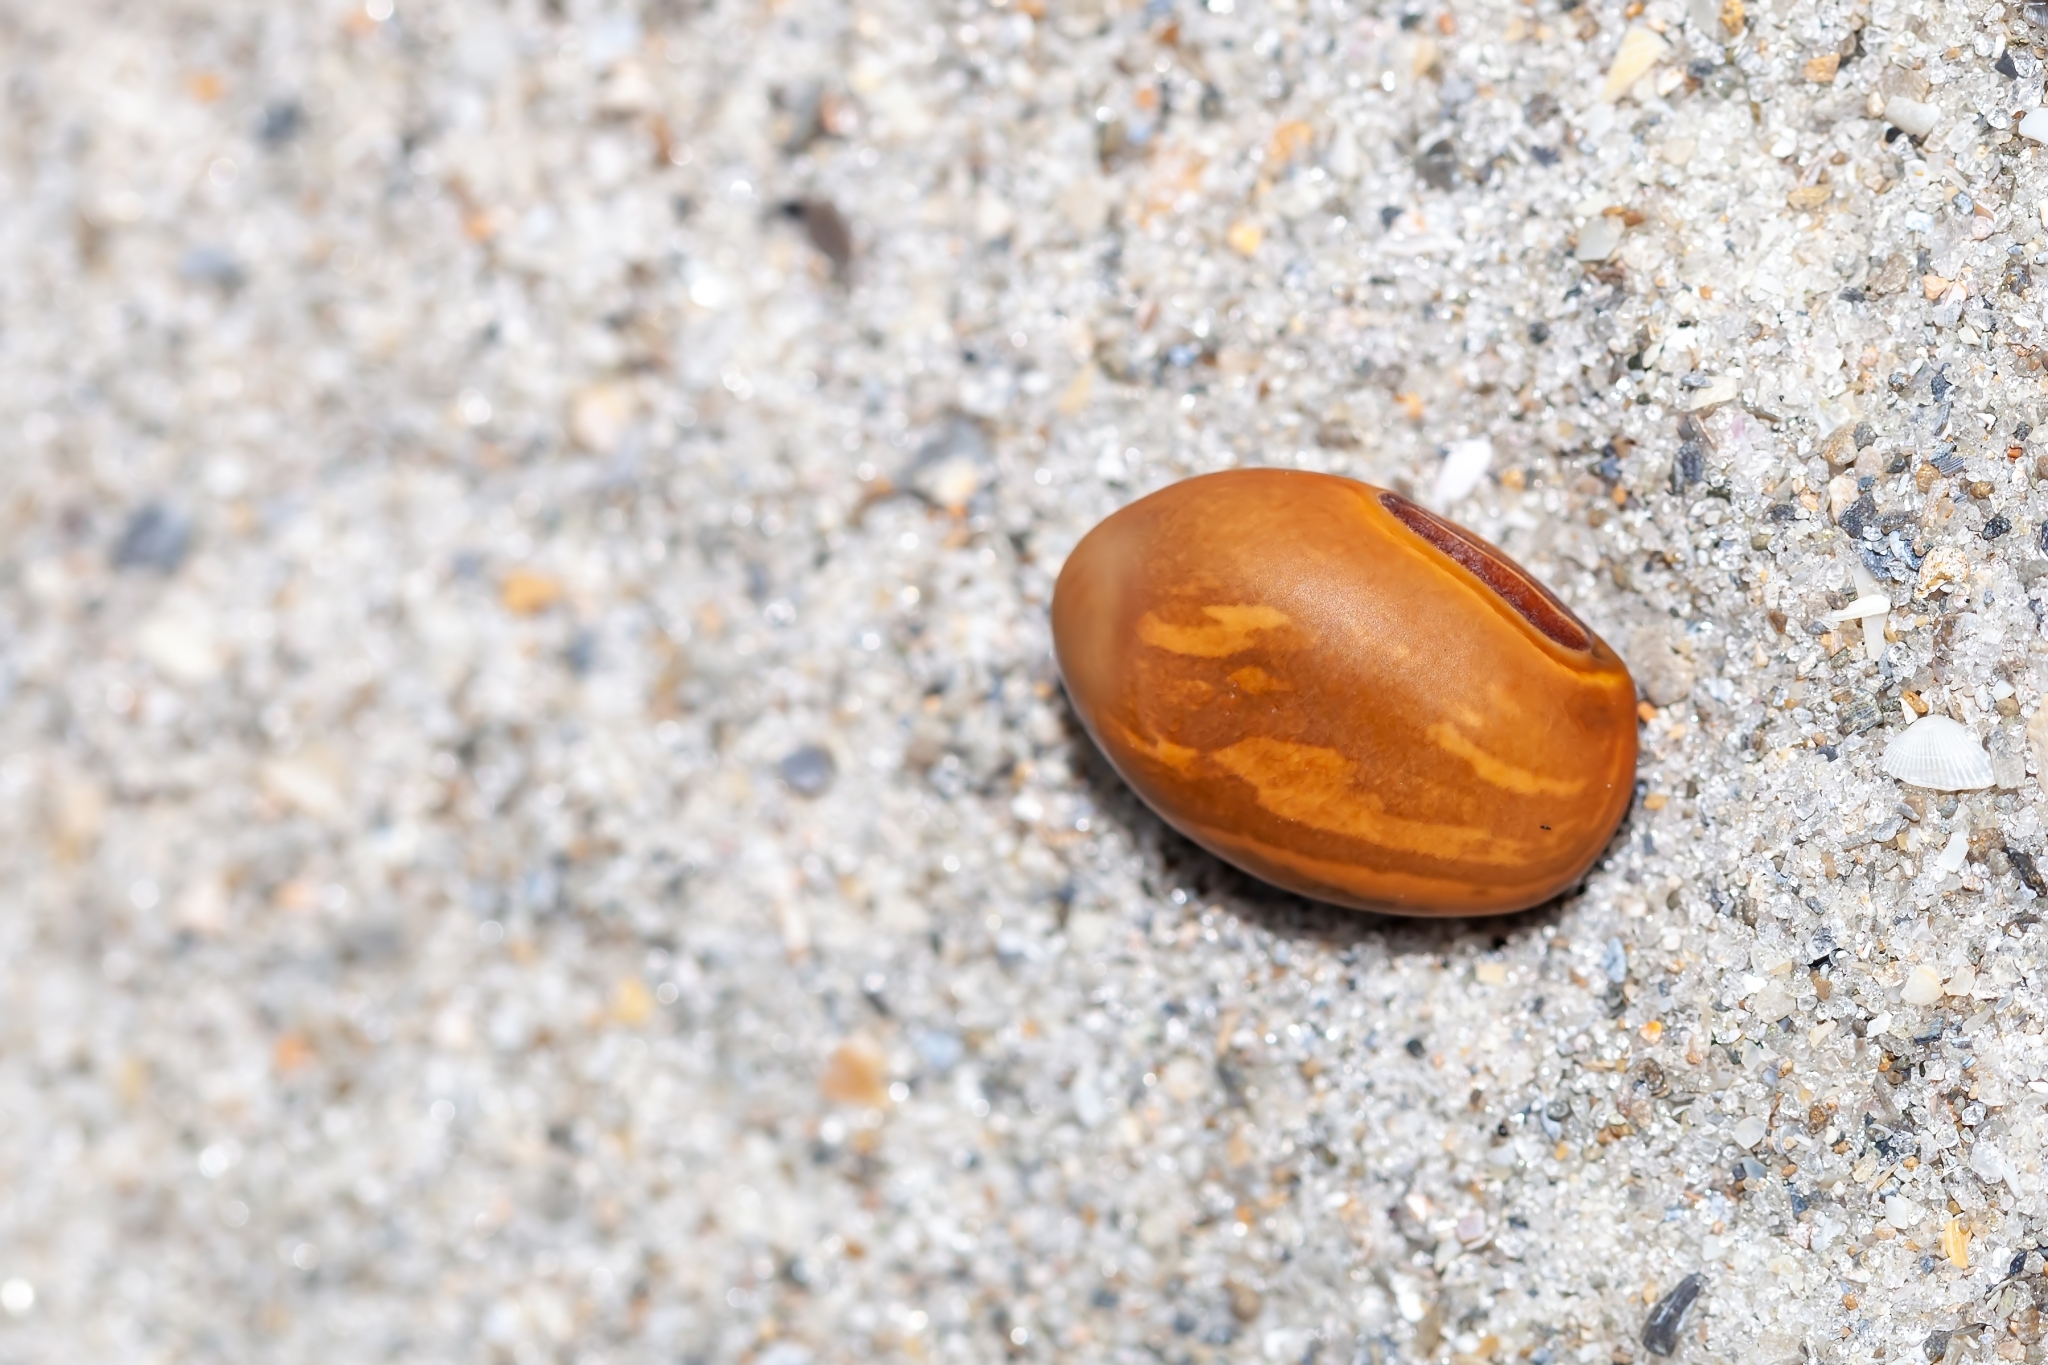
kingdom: Plantae
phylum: Tracheophyta
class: Magnoliopsida
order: Fabales
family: Fabaceae
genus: Canavalia
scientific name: Canavalia rosea
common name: Beach-bean
